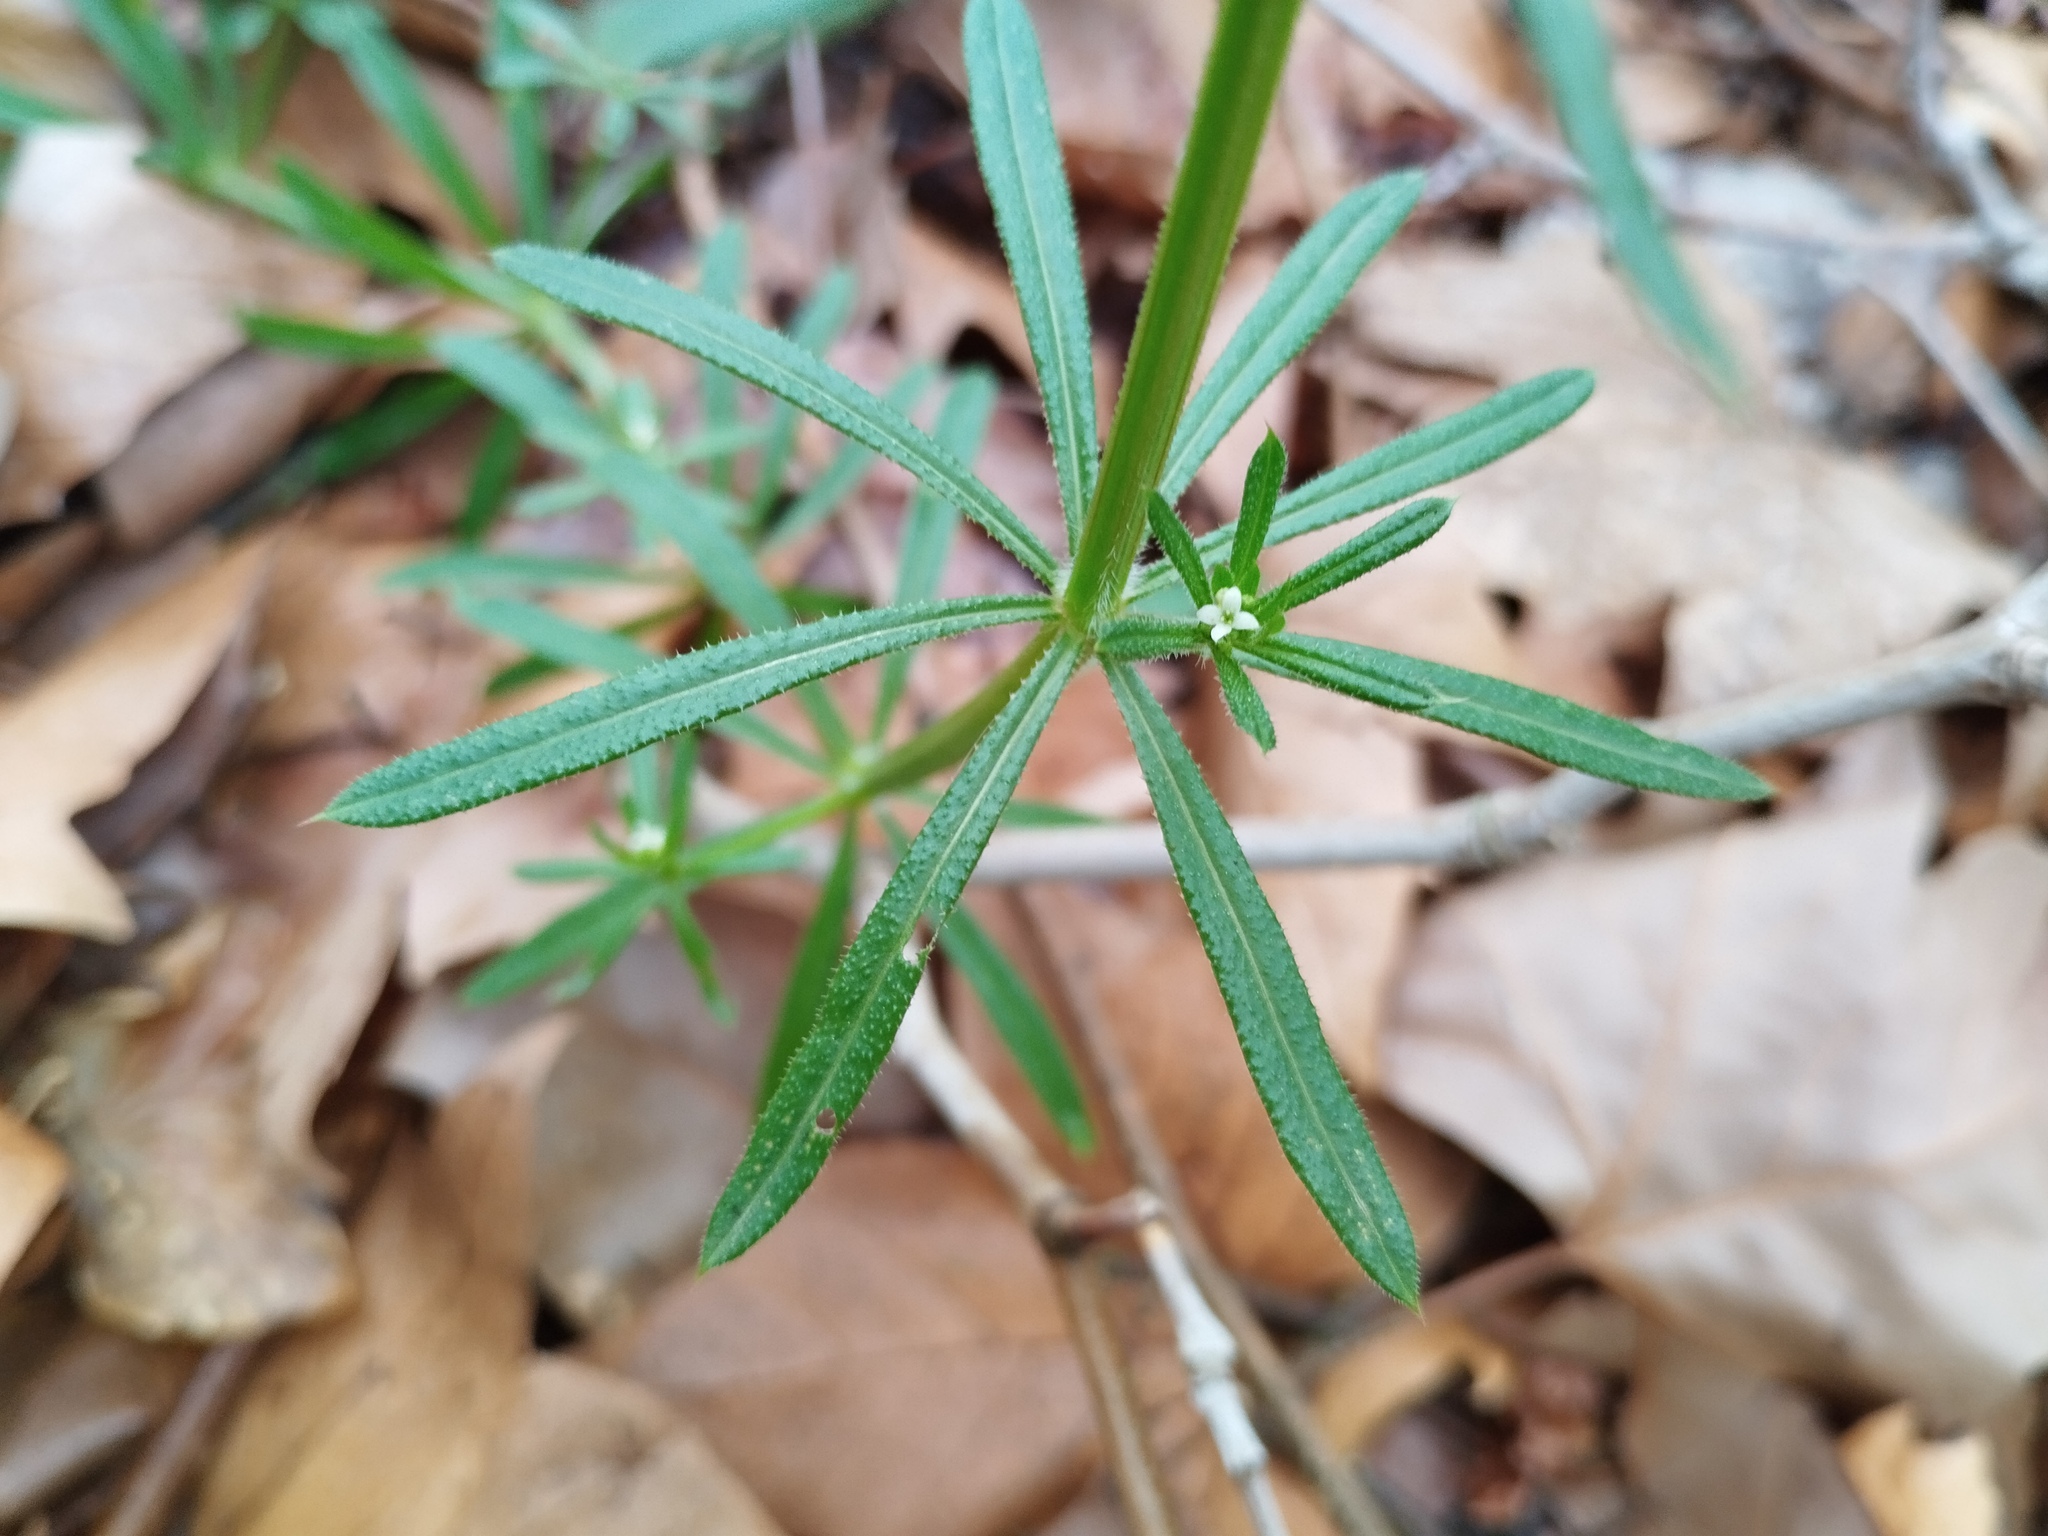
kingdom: Plantae
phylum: Tracheophyta
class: Magnoliopsida
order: Gentianales
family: Rubiaceae
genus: Galium
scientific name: Galium aparine
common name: Cleavers
